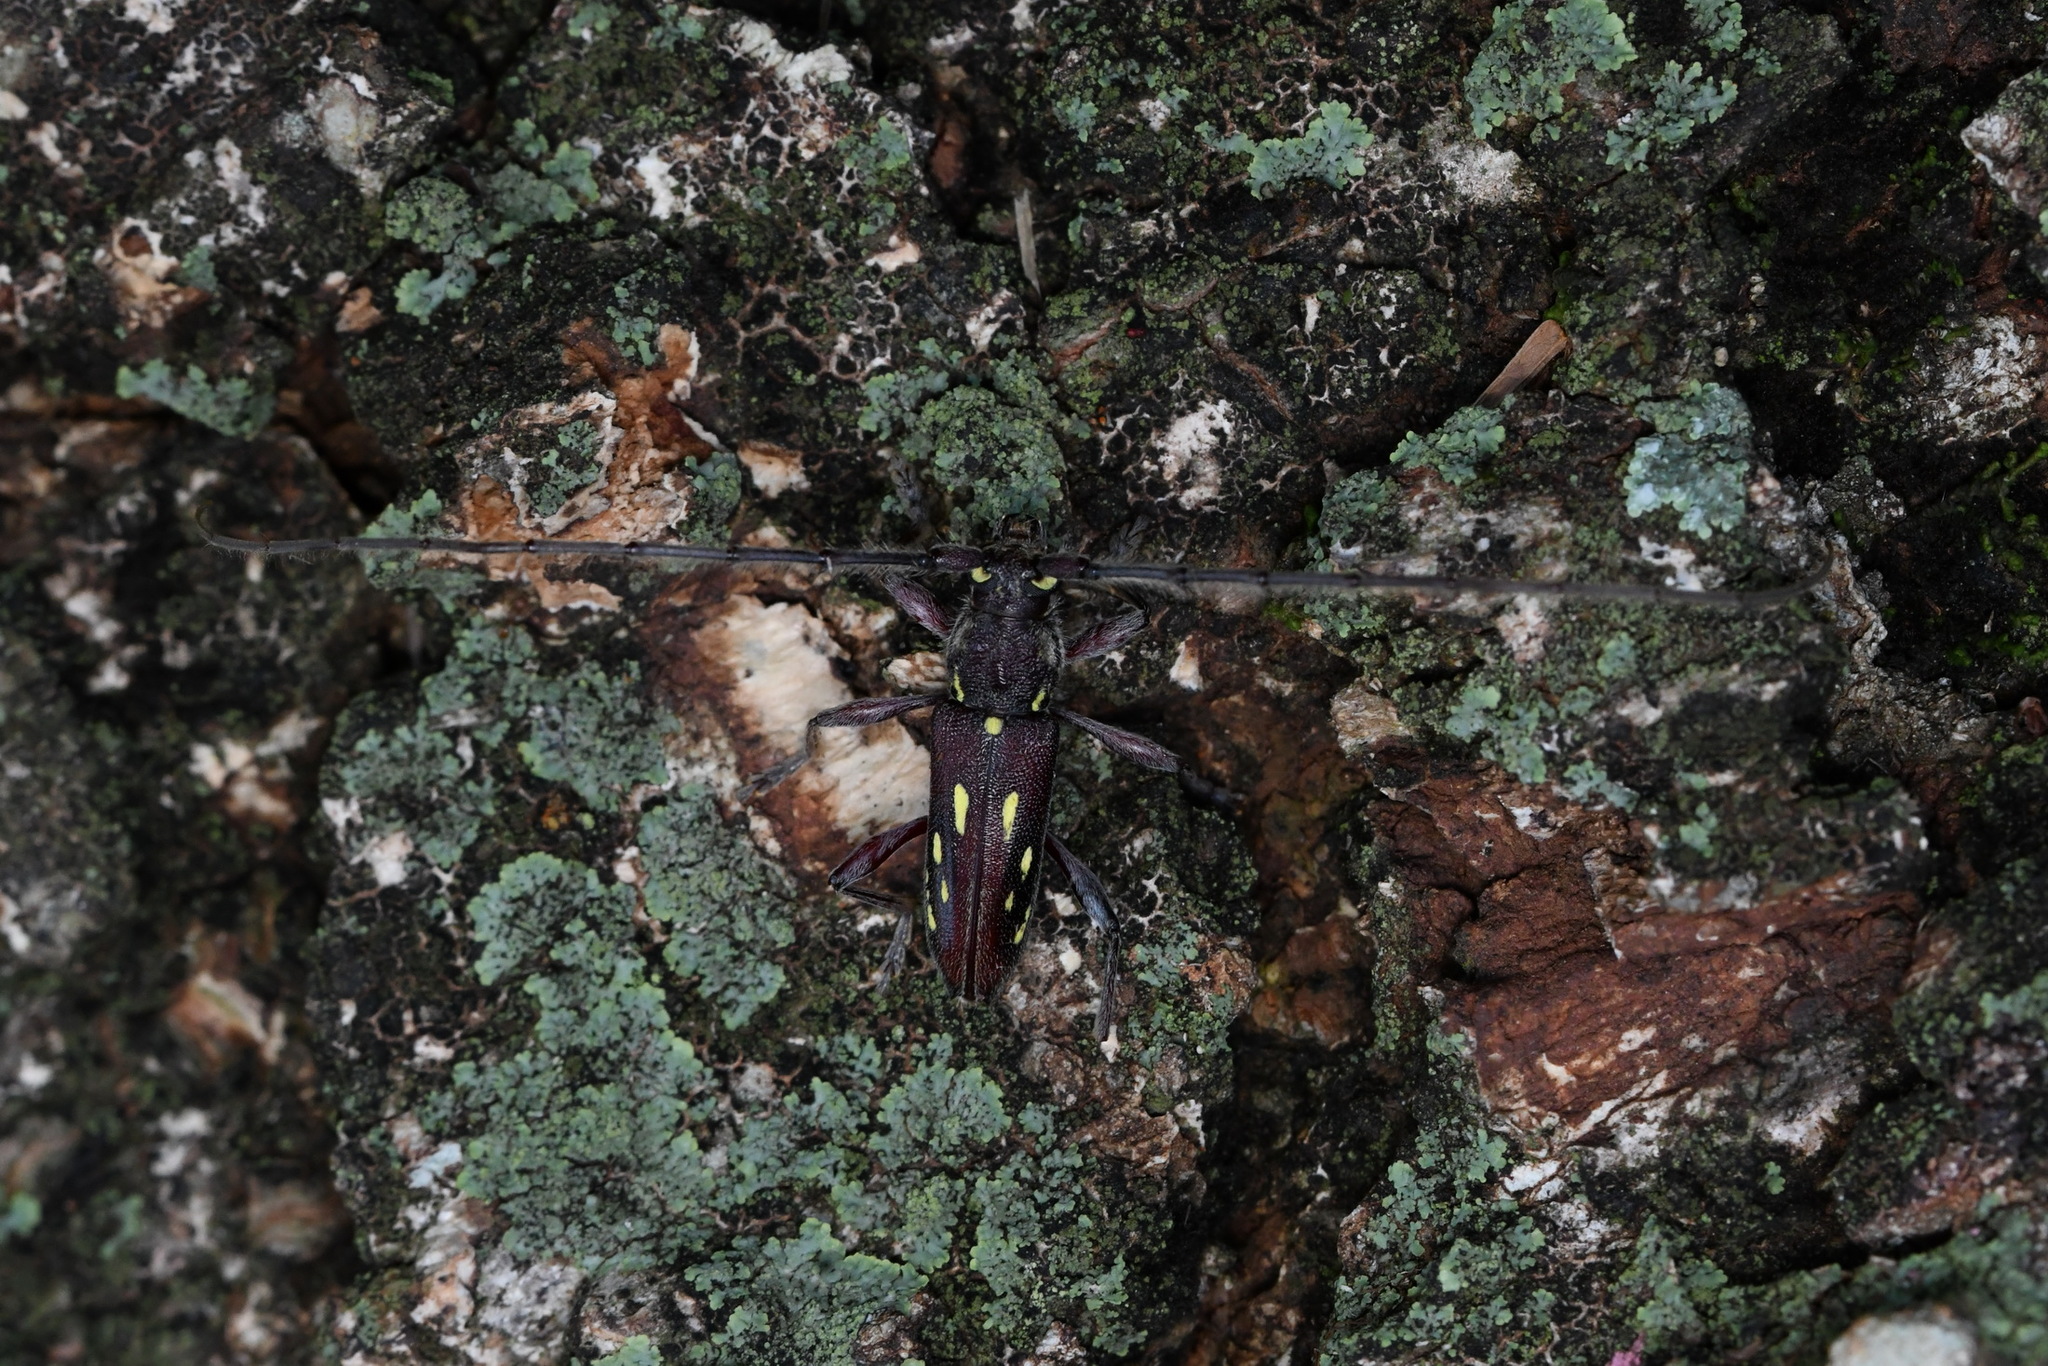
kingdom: Animalia
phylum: Arthropoda
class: Insecta
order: Coleoptera
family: Cerambycidae
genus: Ambonus
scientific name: Ambonus distinctus
